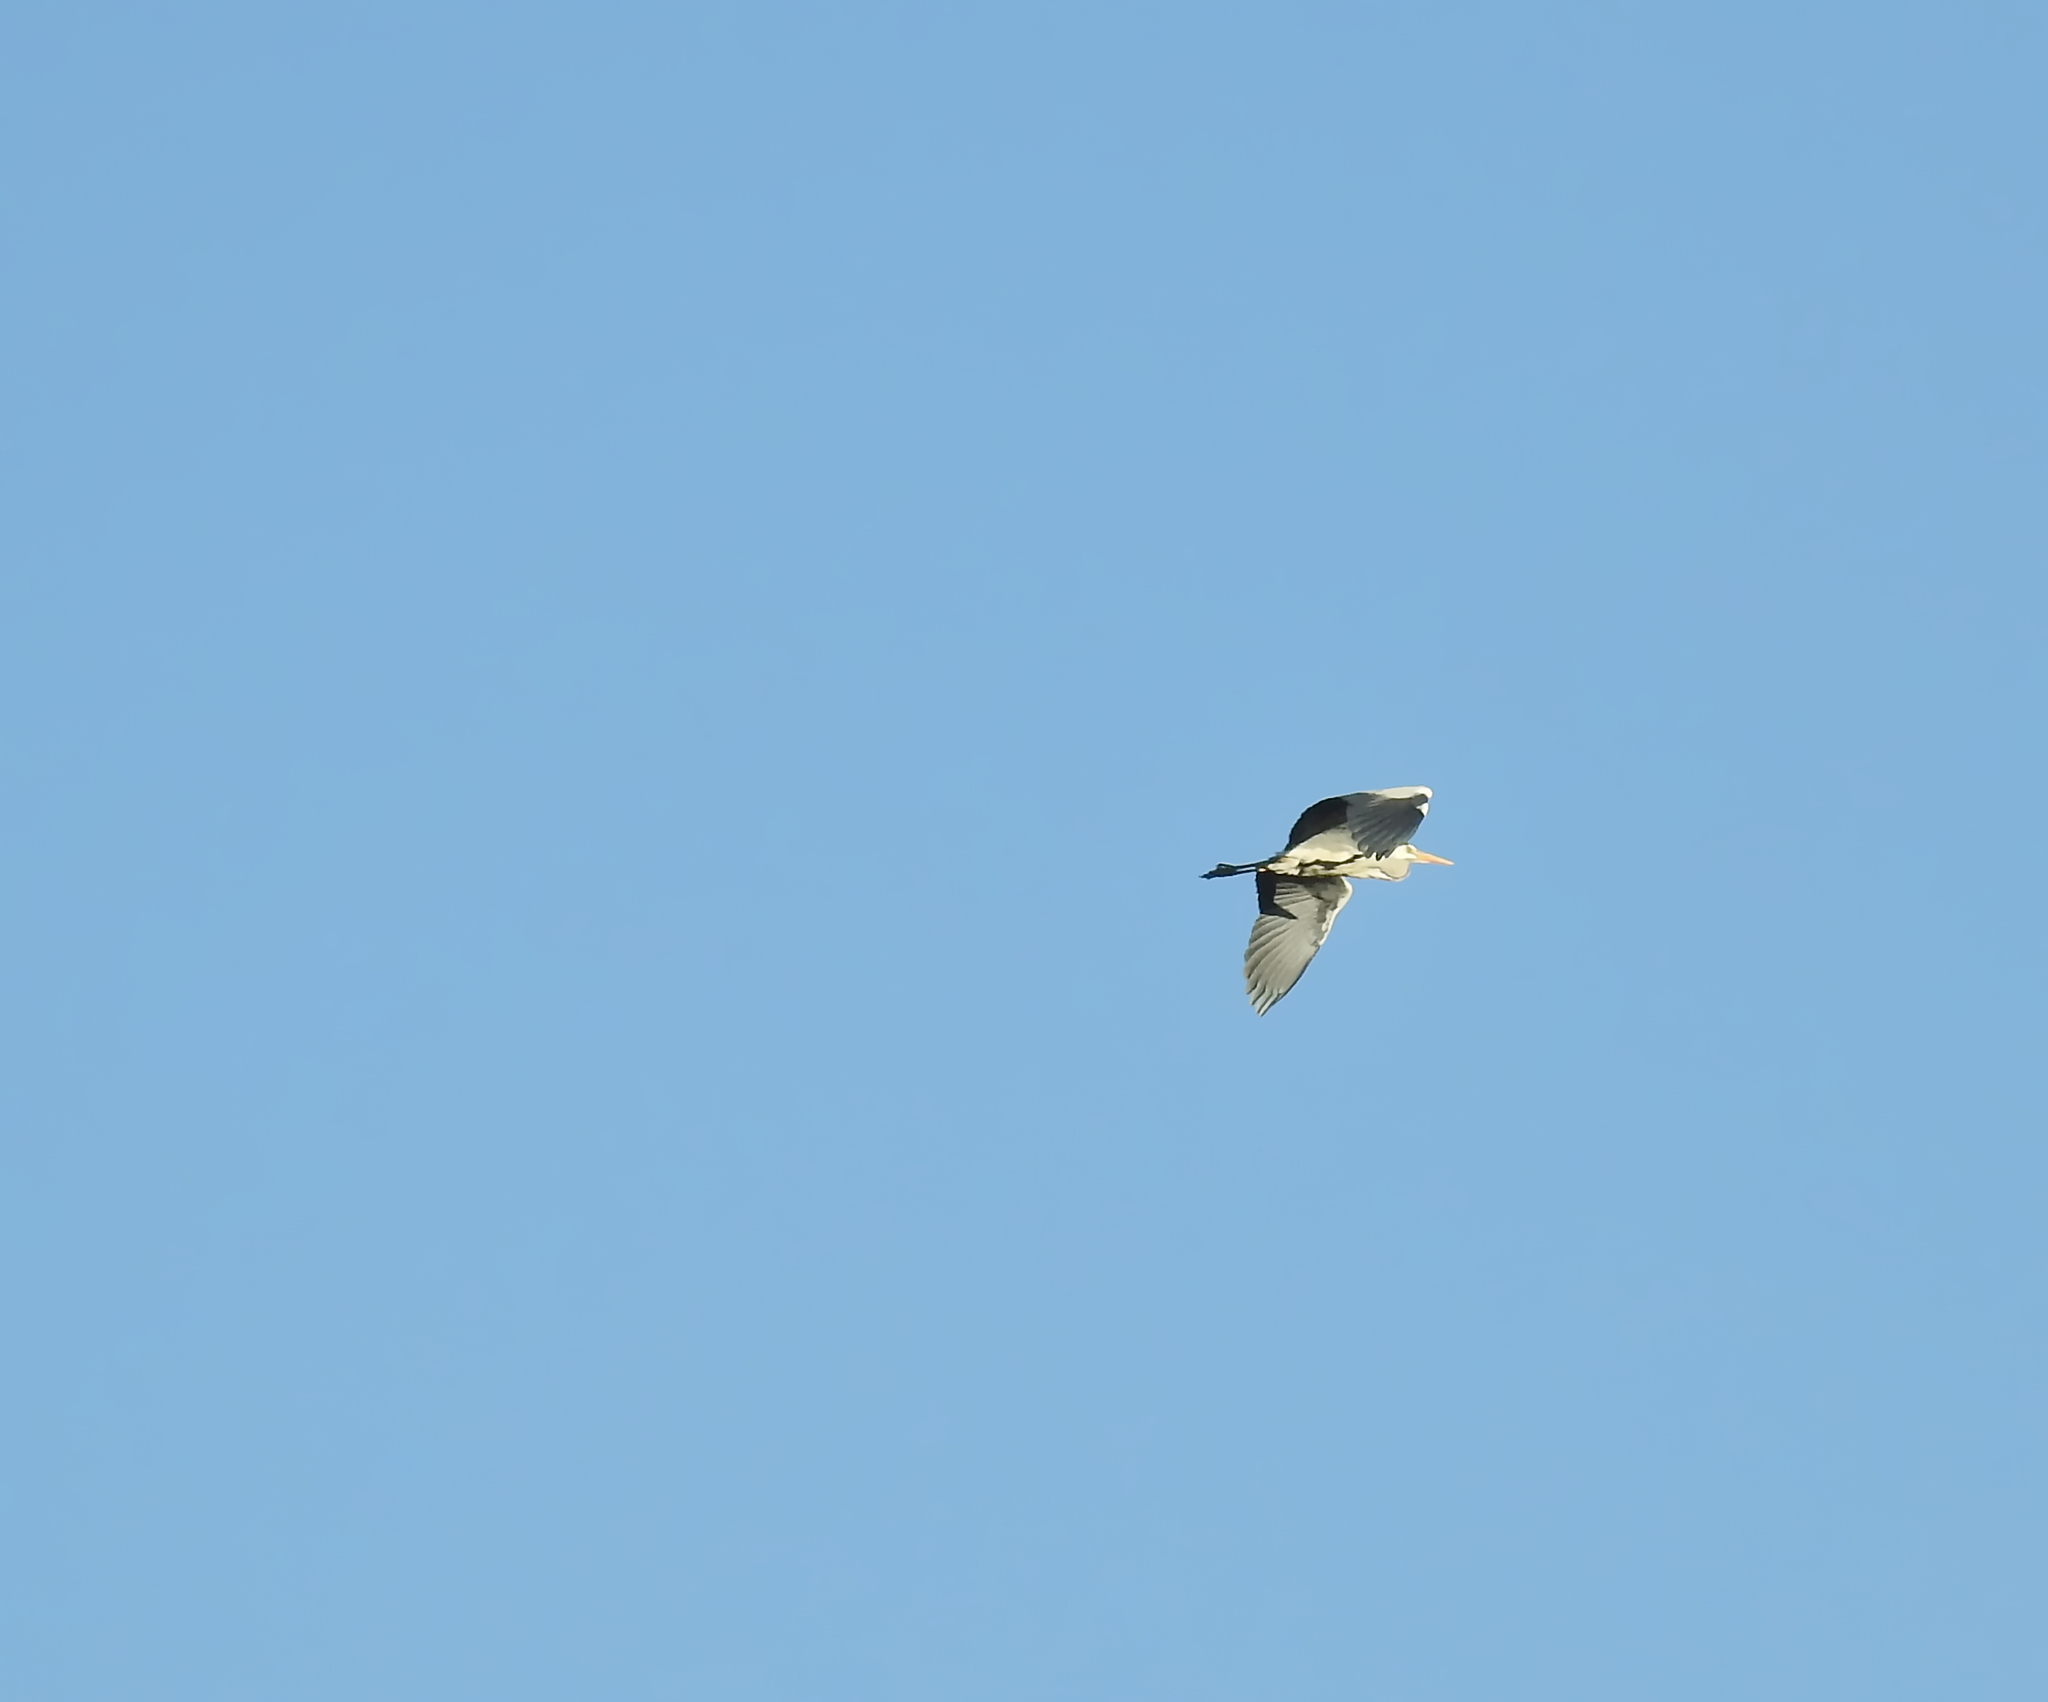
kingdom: Animalia
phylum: Chordata
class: Aves
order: Pelecaniformes
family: Ardeidae
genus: Ardea
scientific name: Ardea cinerea
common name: Grey heron
